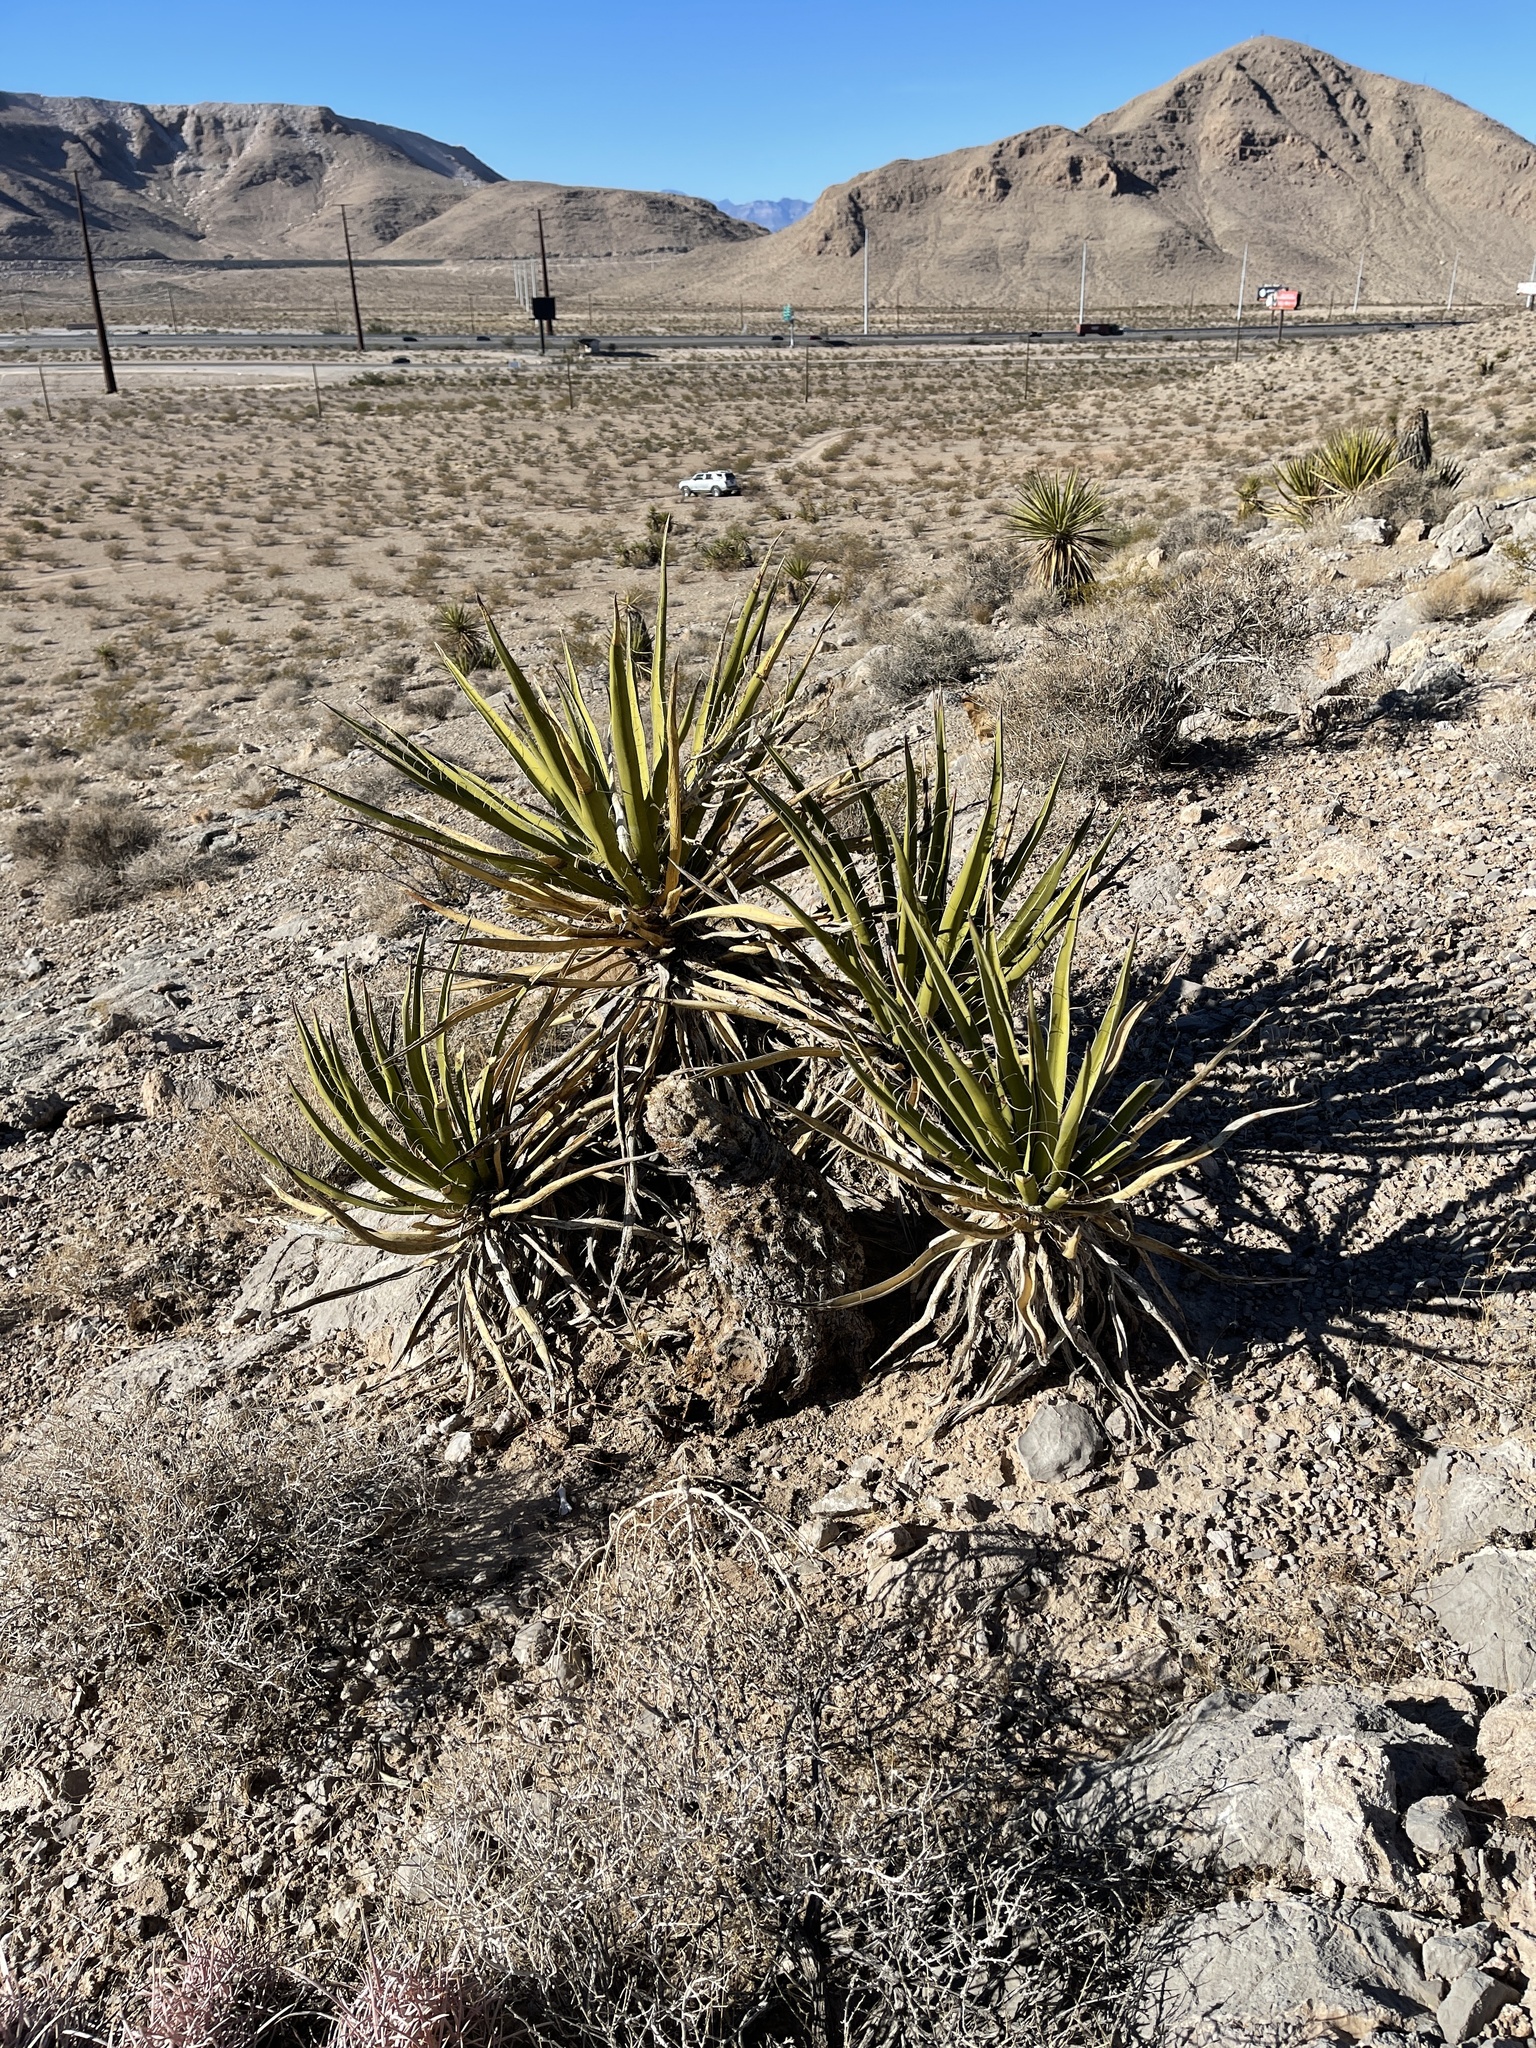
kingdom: Plantae
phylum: Tracheophyta
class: Liliopsida
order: Asparagales
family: Asparagaceae
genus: Yucca
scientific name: Yucca schidigera
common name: Mojave yucca
